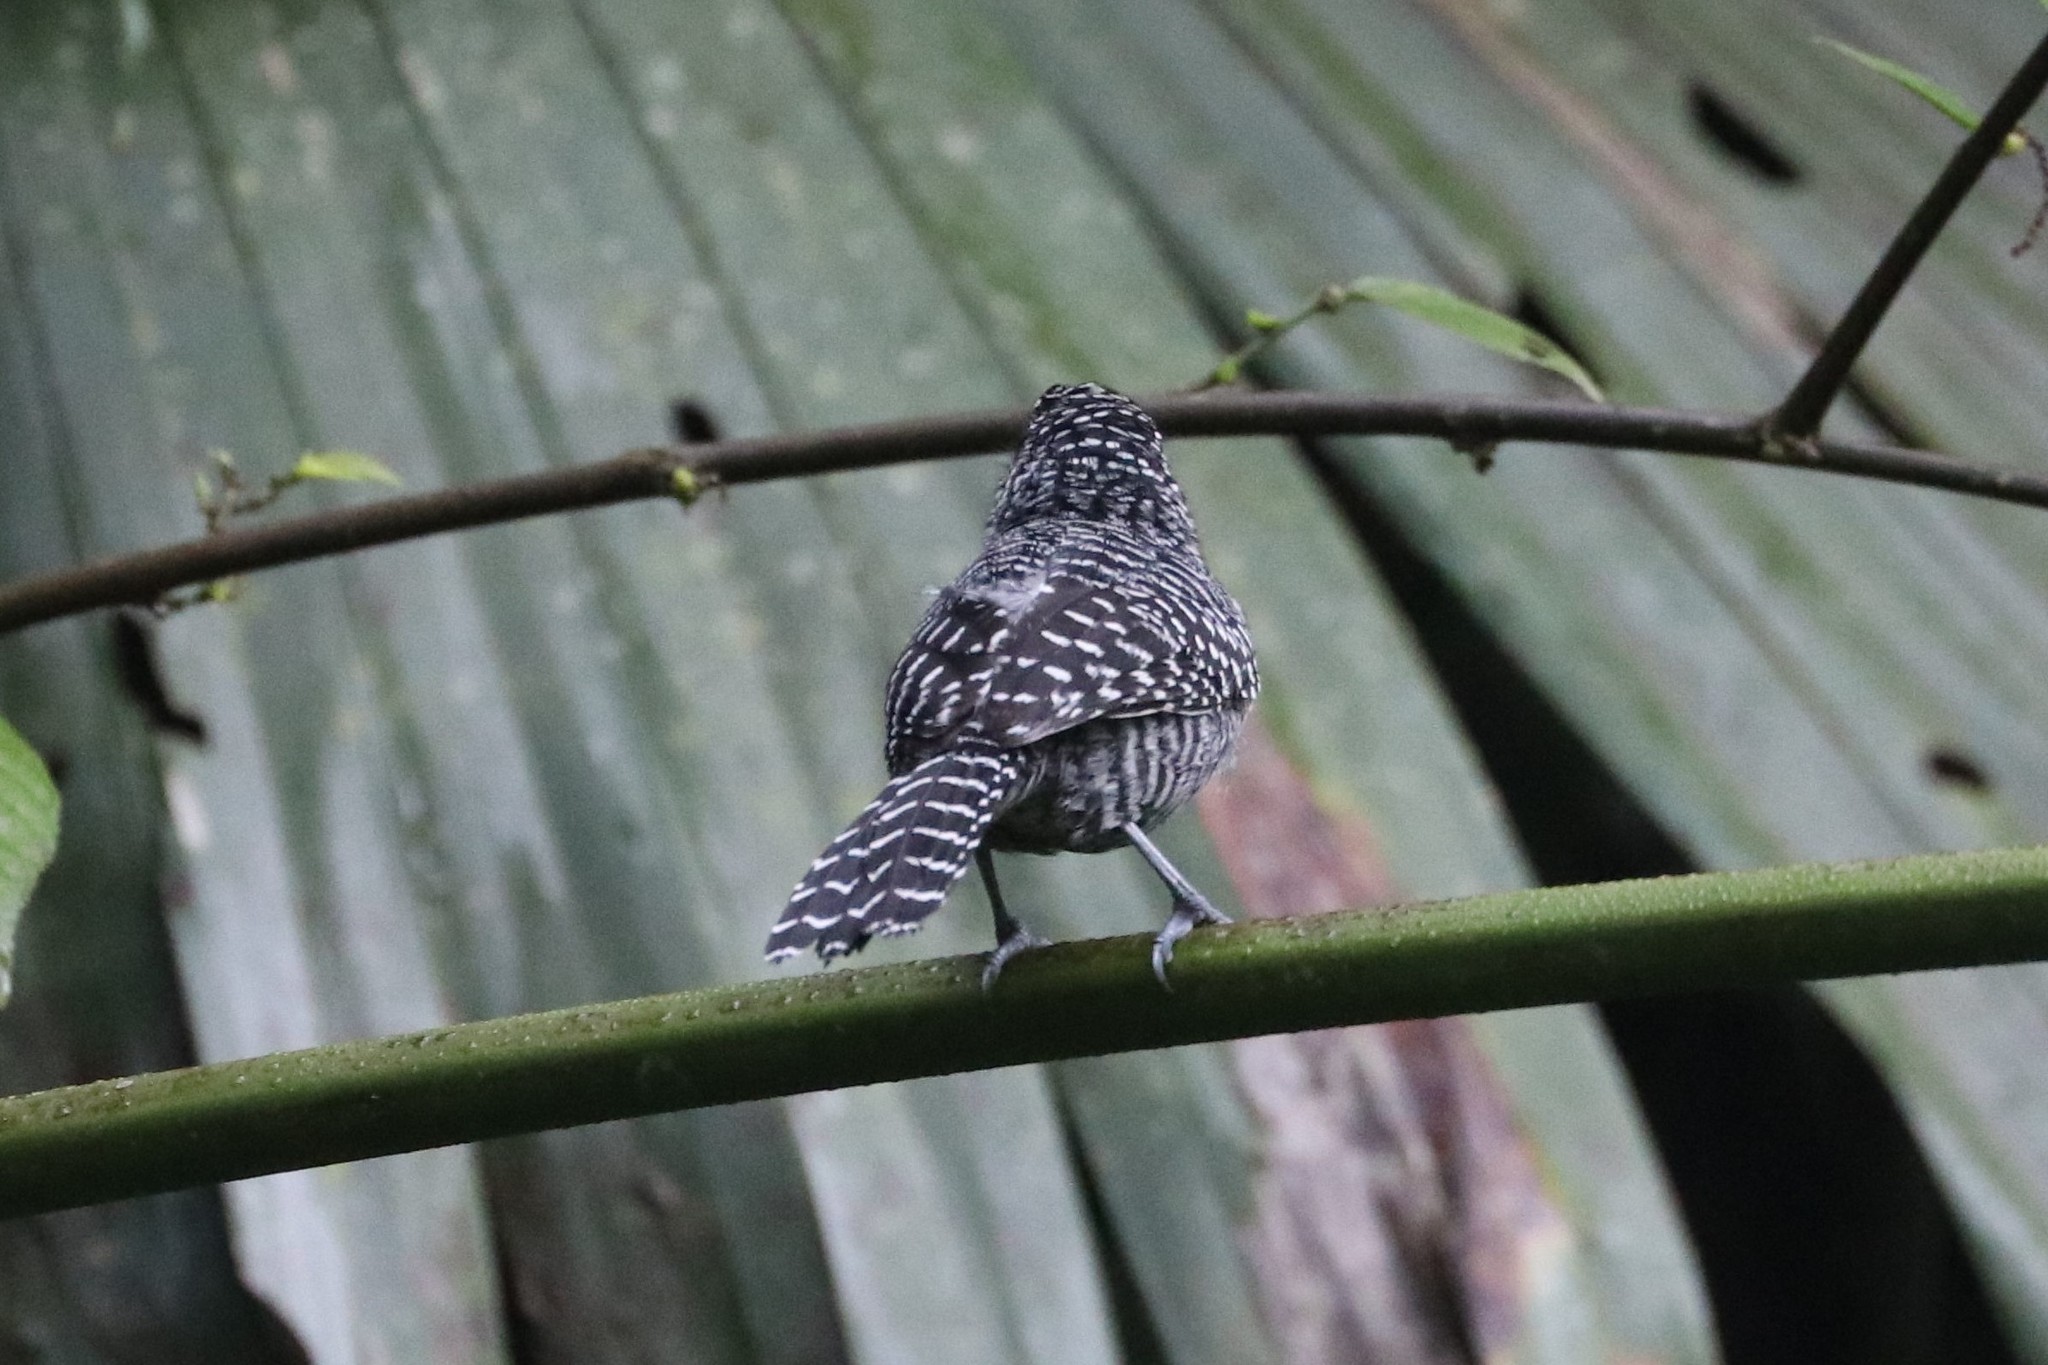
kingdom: Animalia
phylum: Chordata
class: Aves
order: Passeriformes
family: Thamnophilidae
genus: Thamnophilus
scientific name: Thamnophilus multistriatus
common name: Bar-crested antshrike
